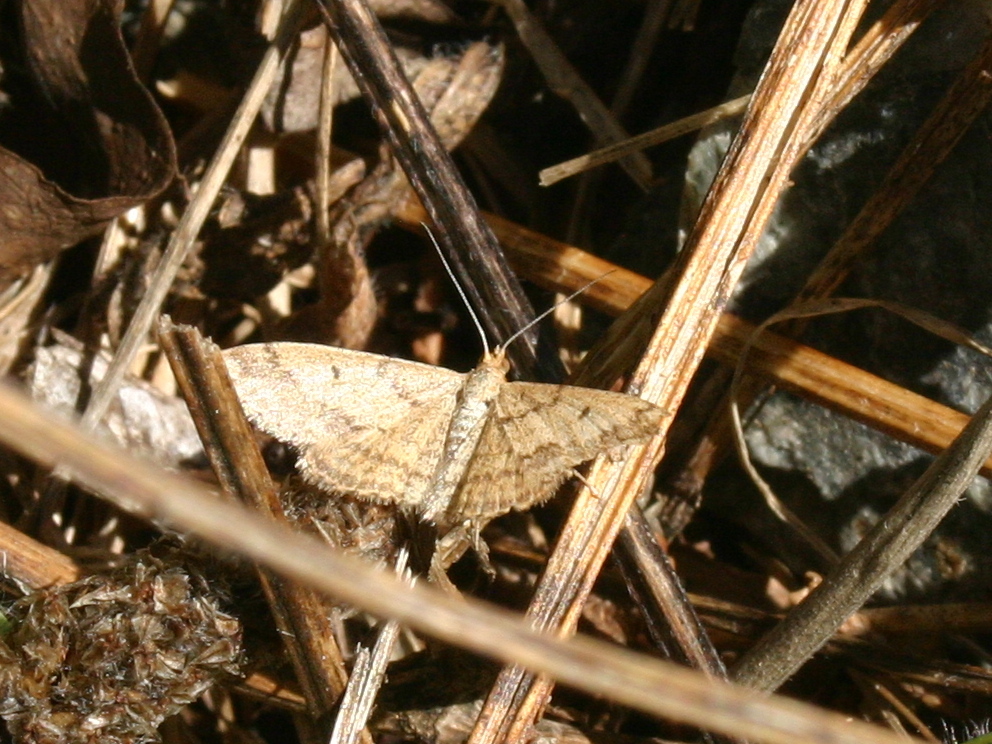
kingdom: Animalia
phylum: Arthropoda
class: Insecta
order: Lepidoptera
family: Geometridae
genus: Scopula
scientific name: Scopula rubraria
